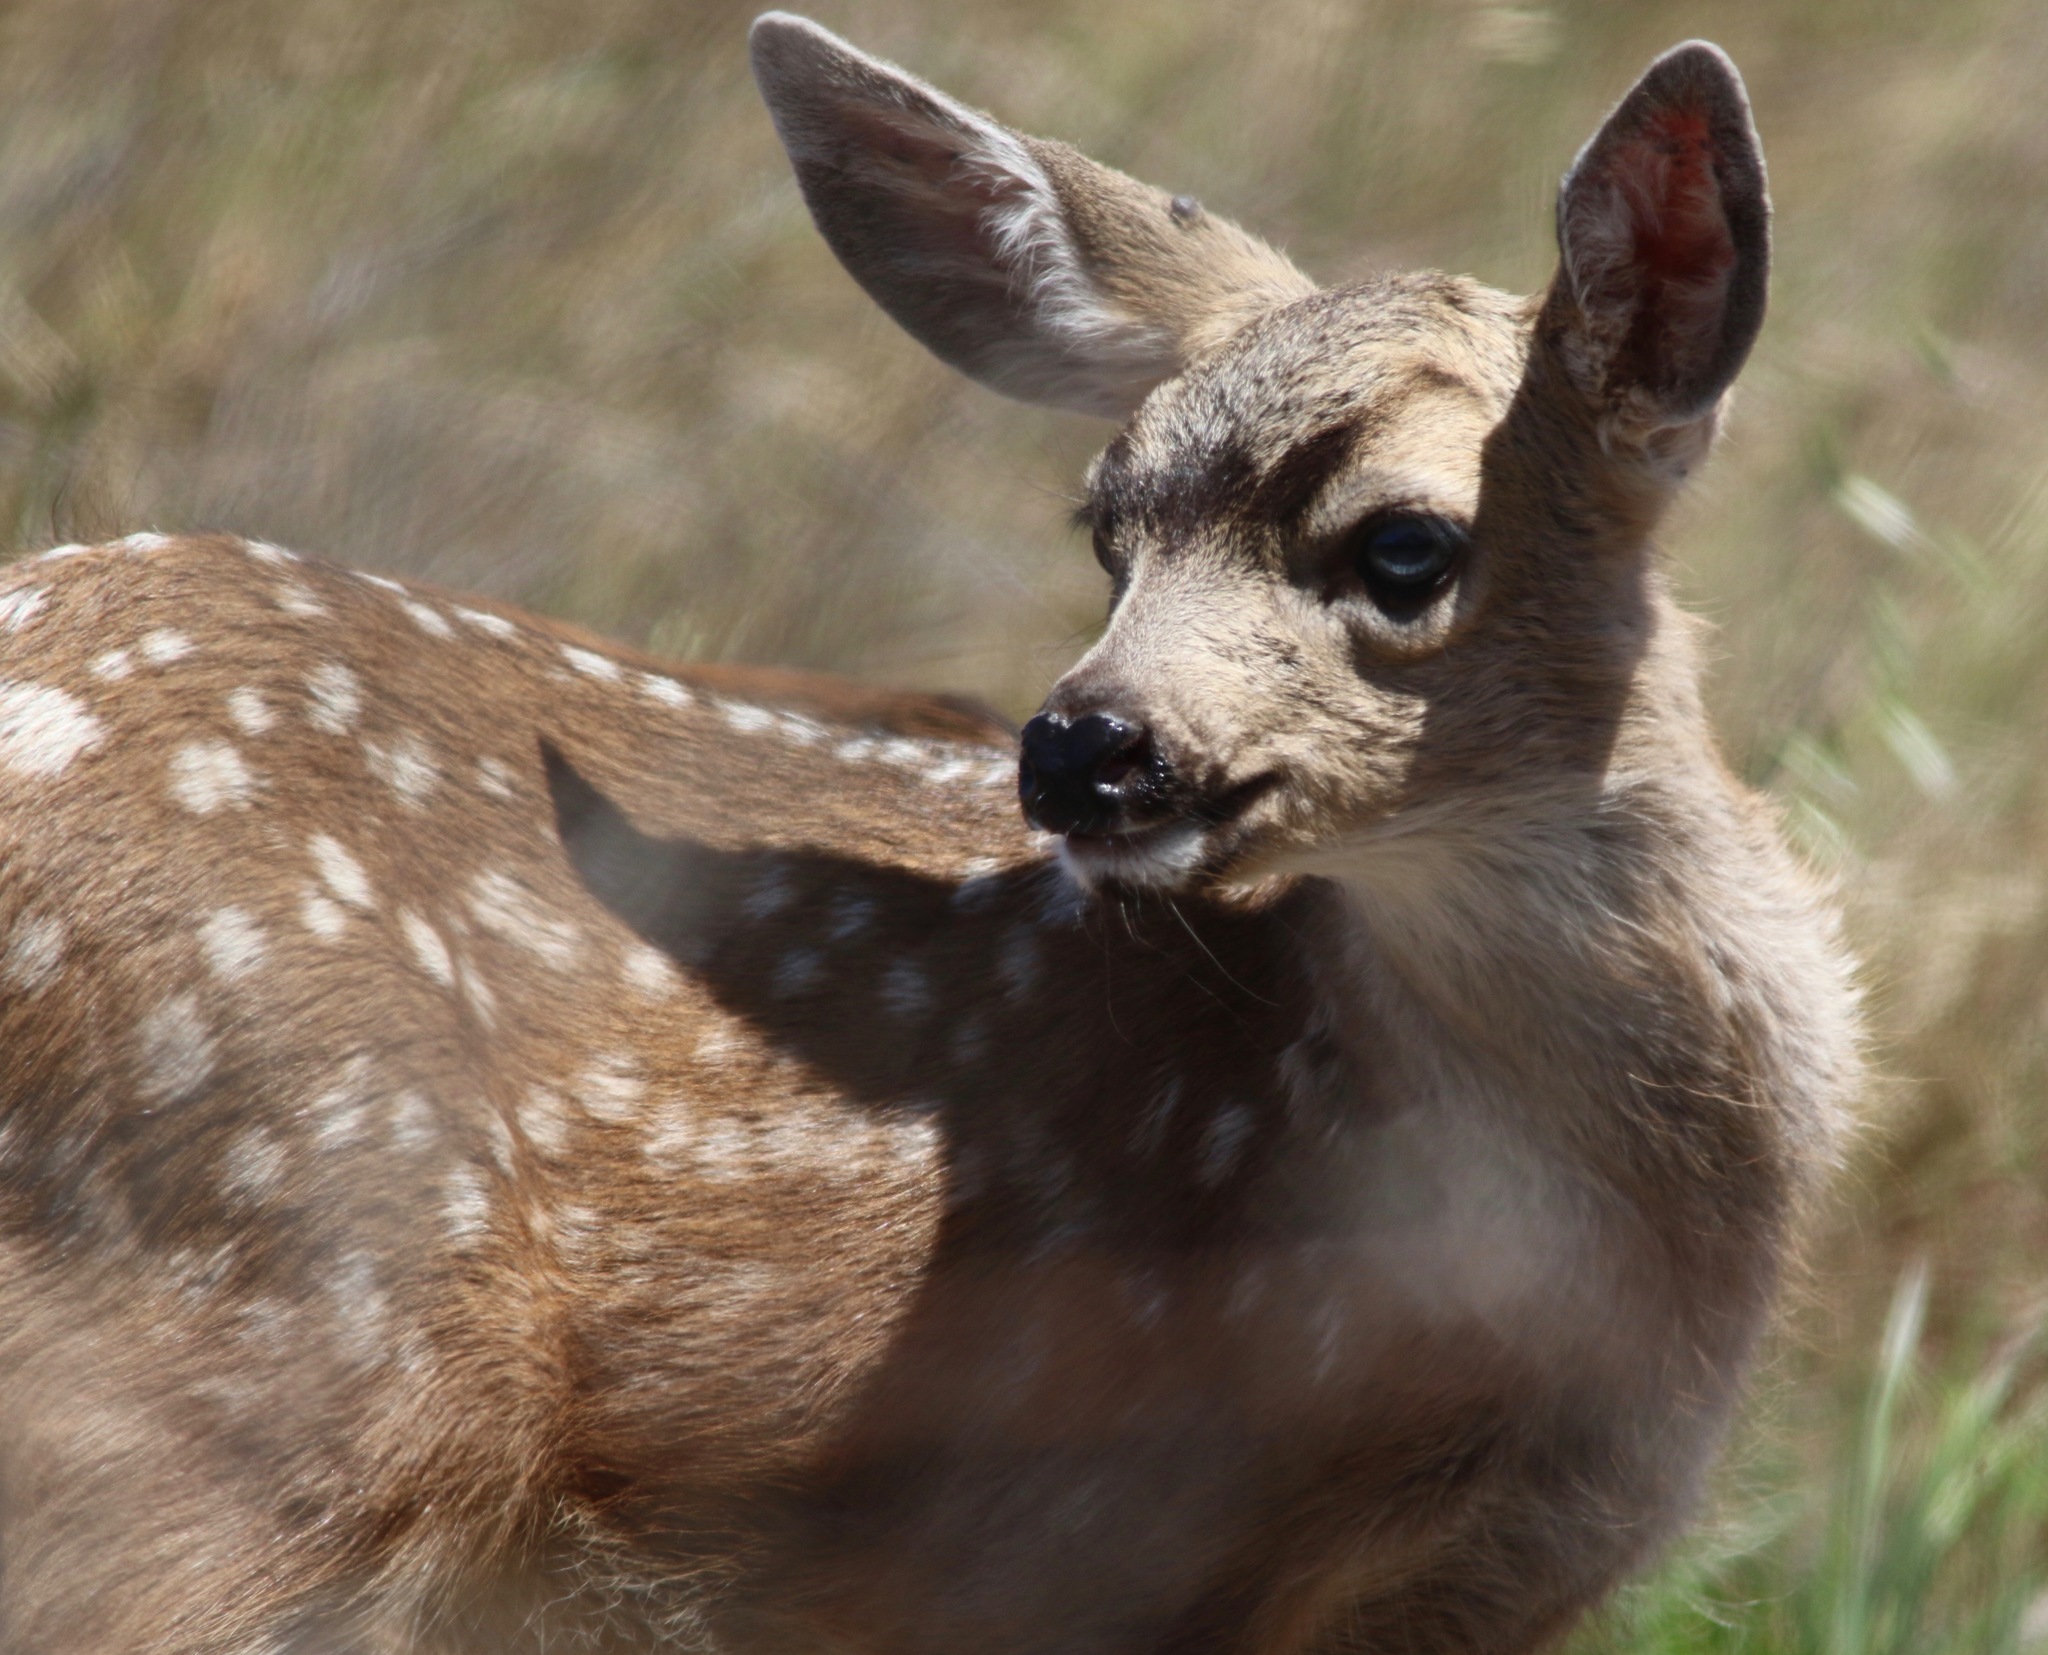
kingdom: Animalia
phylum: Chordata
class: Mammalia
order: Artiodactyla
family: Cervidae
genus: Odocoileus
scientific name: Odocoileus hemionus
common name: Mule deer
